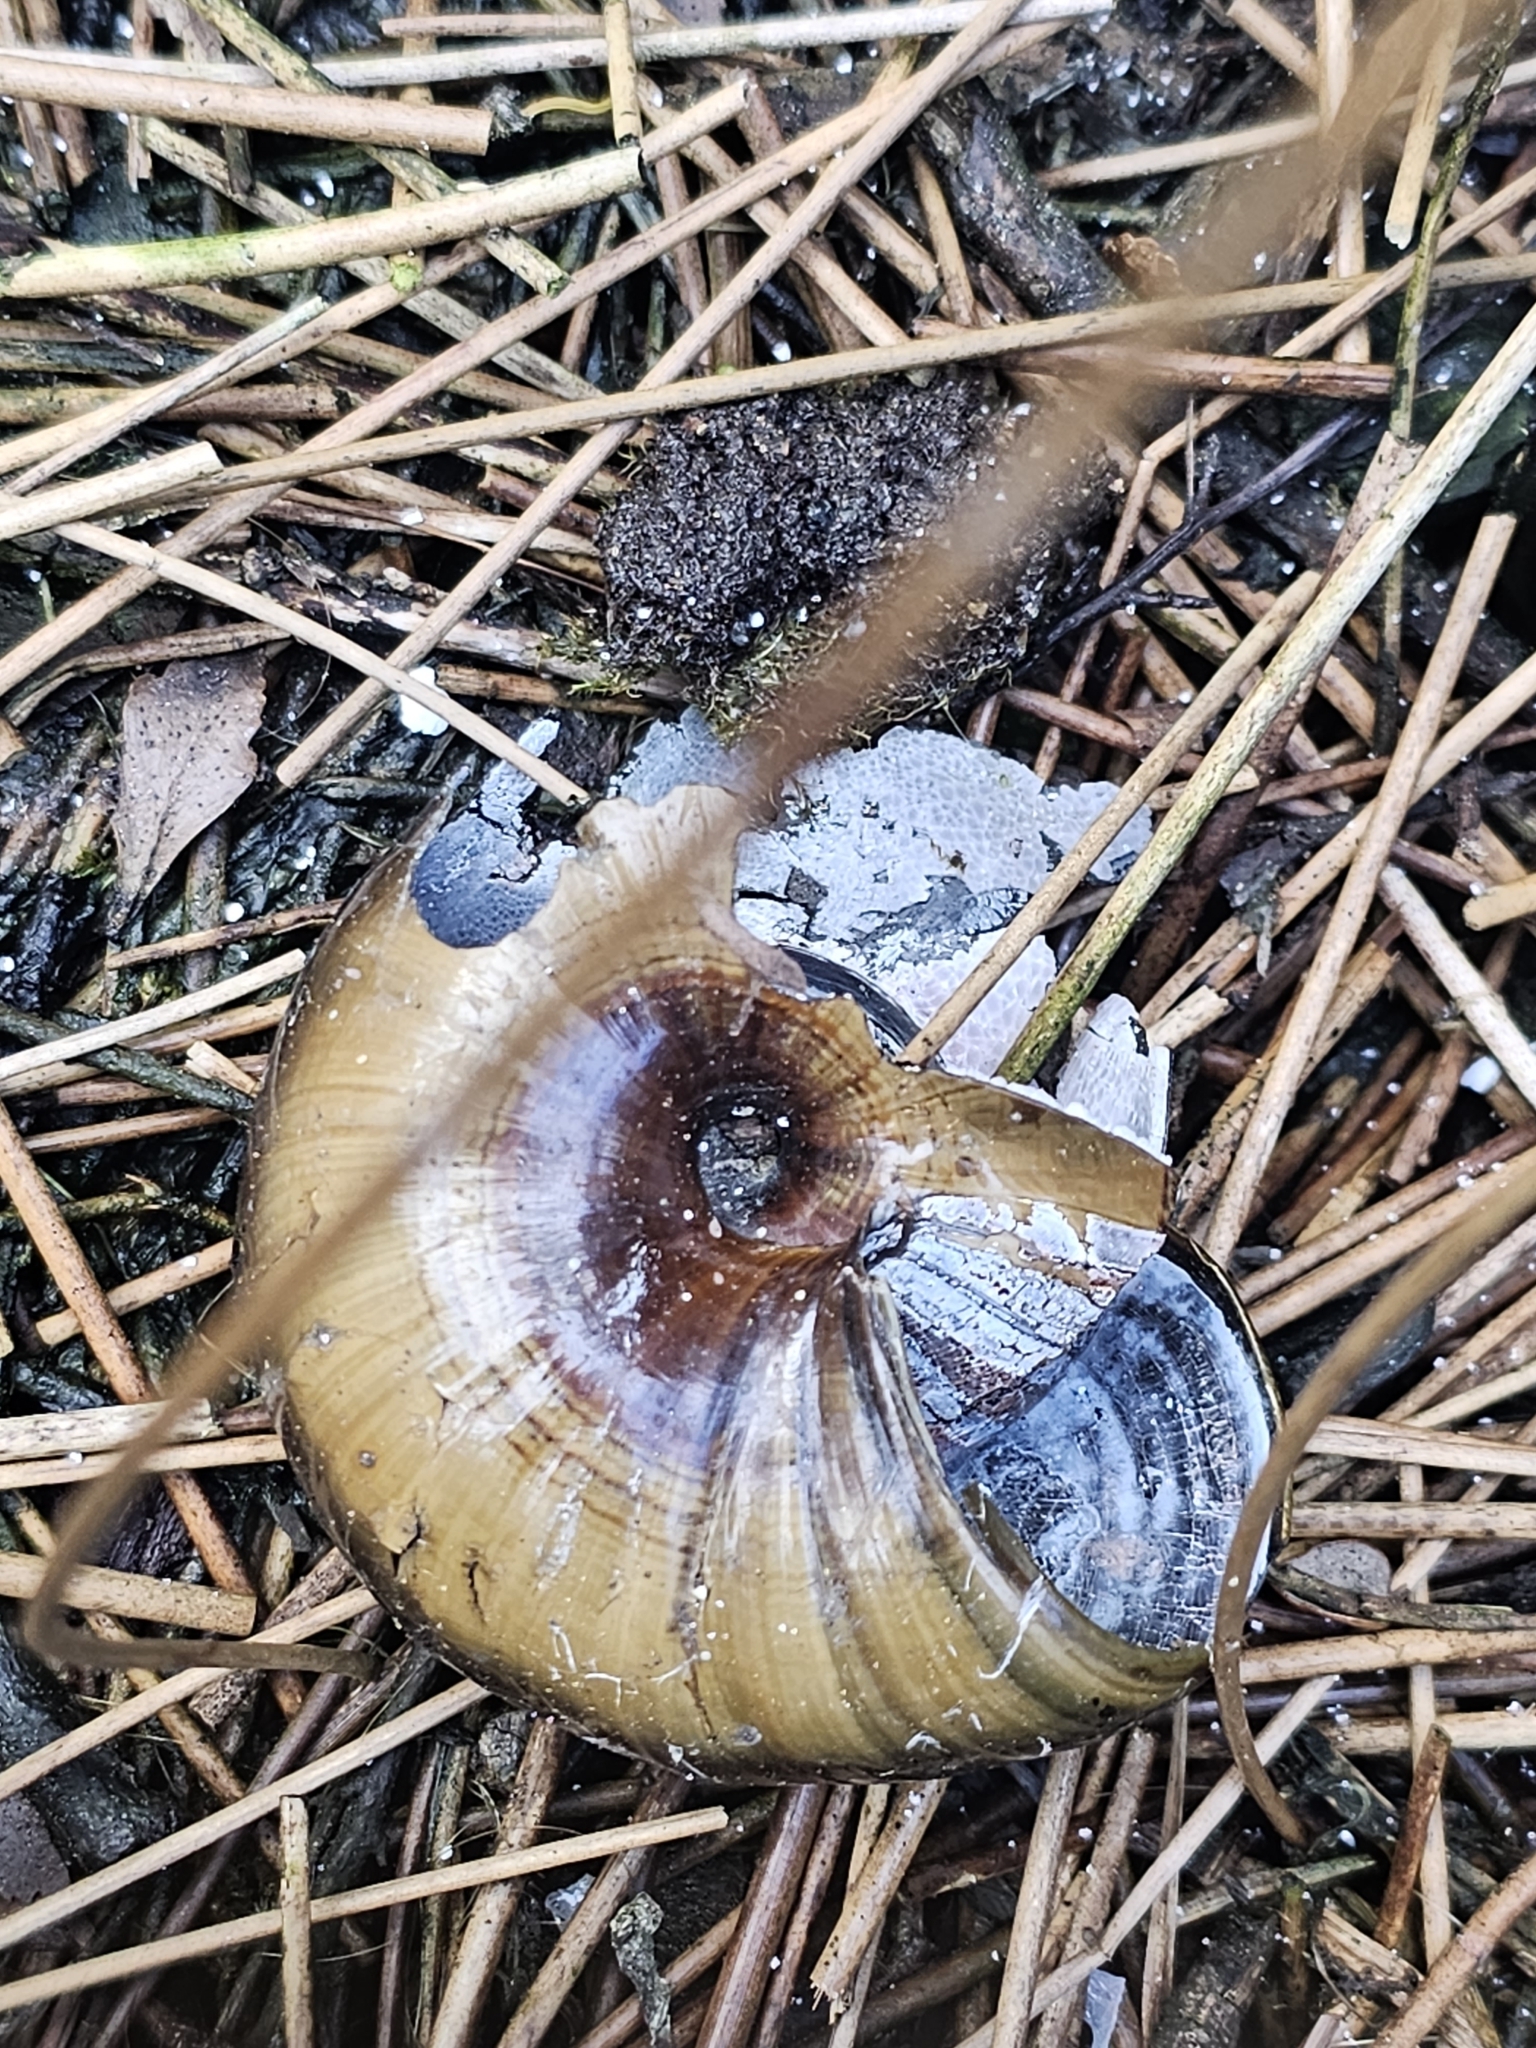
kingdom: Animalia
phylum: Mollusca
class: Gastropoda
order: Stylommatophora
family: Rhytididae
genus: Powelliphanta
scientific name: Powelliphanta hochstetteri
